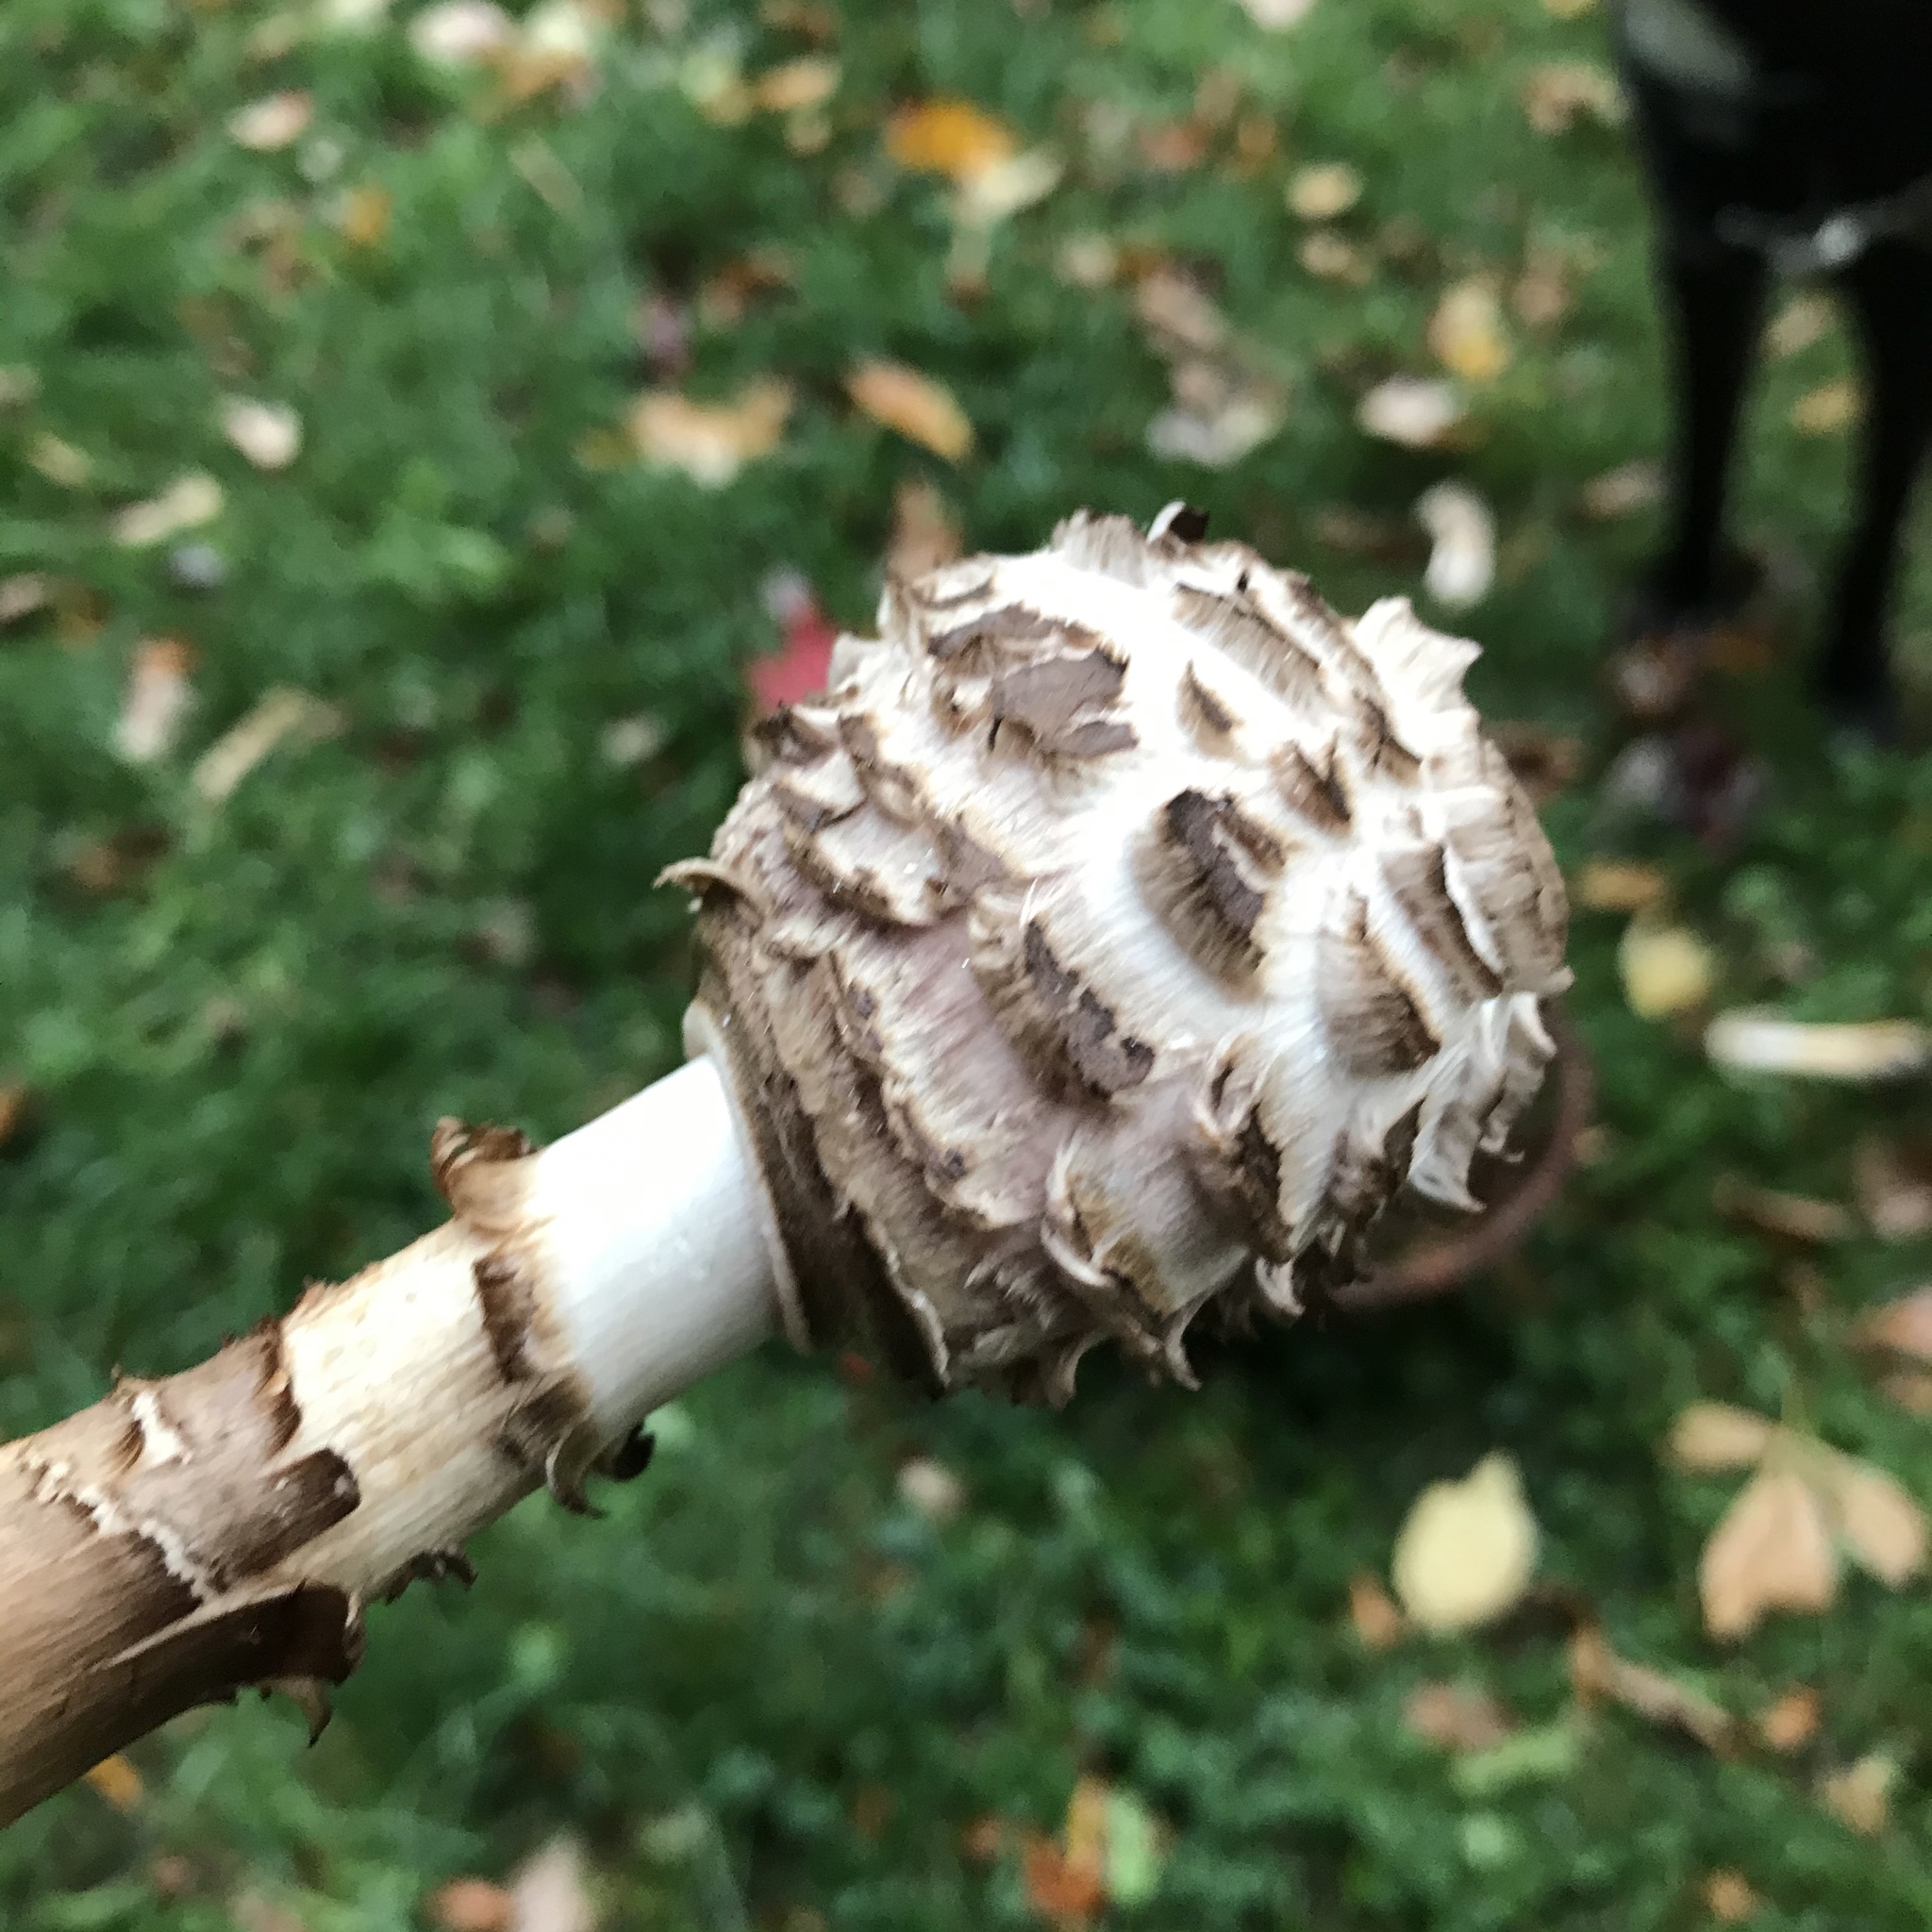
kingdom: Fungi
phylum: Basidiomycota
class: Agaricomycetes
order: Agaricales
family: Agaricaceae
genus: Chlorophyllum
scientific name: Chlorophyllum rhacodes
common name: Shaggy parasol
